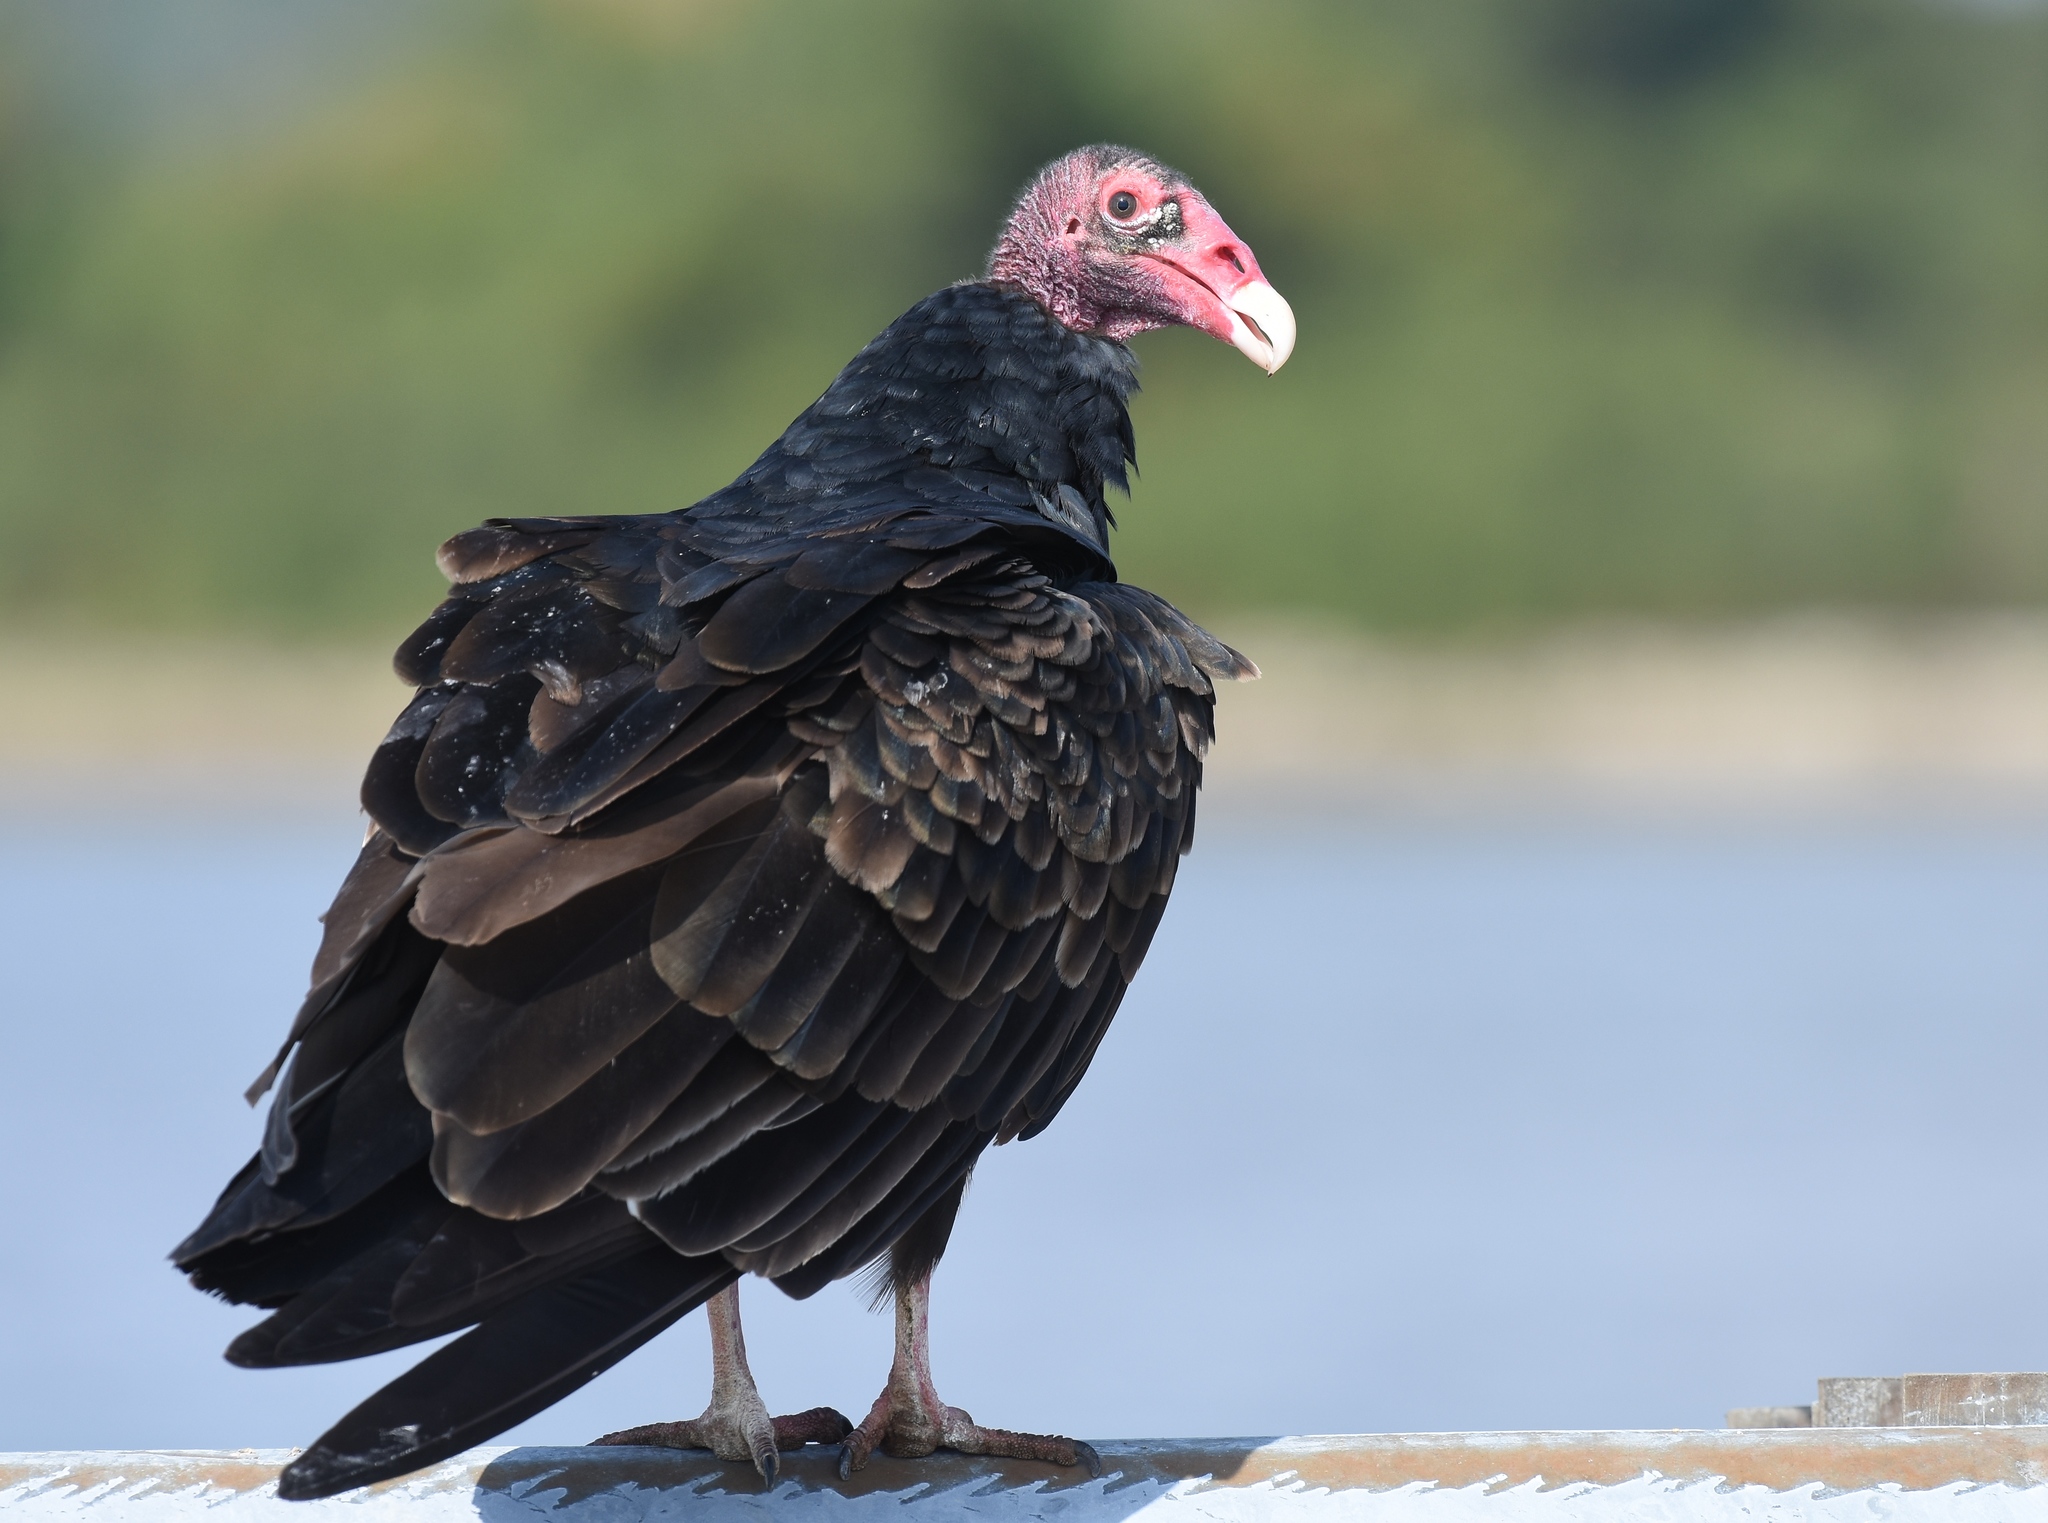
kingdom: Animalia
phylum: Chordata
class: Aves
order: Accipitriformes
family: Cathartidae
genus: Cathartes
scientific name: Cathartes aura
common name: Turkey vulture
